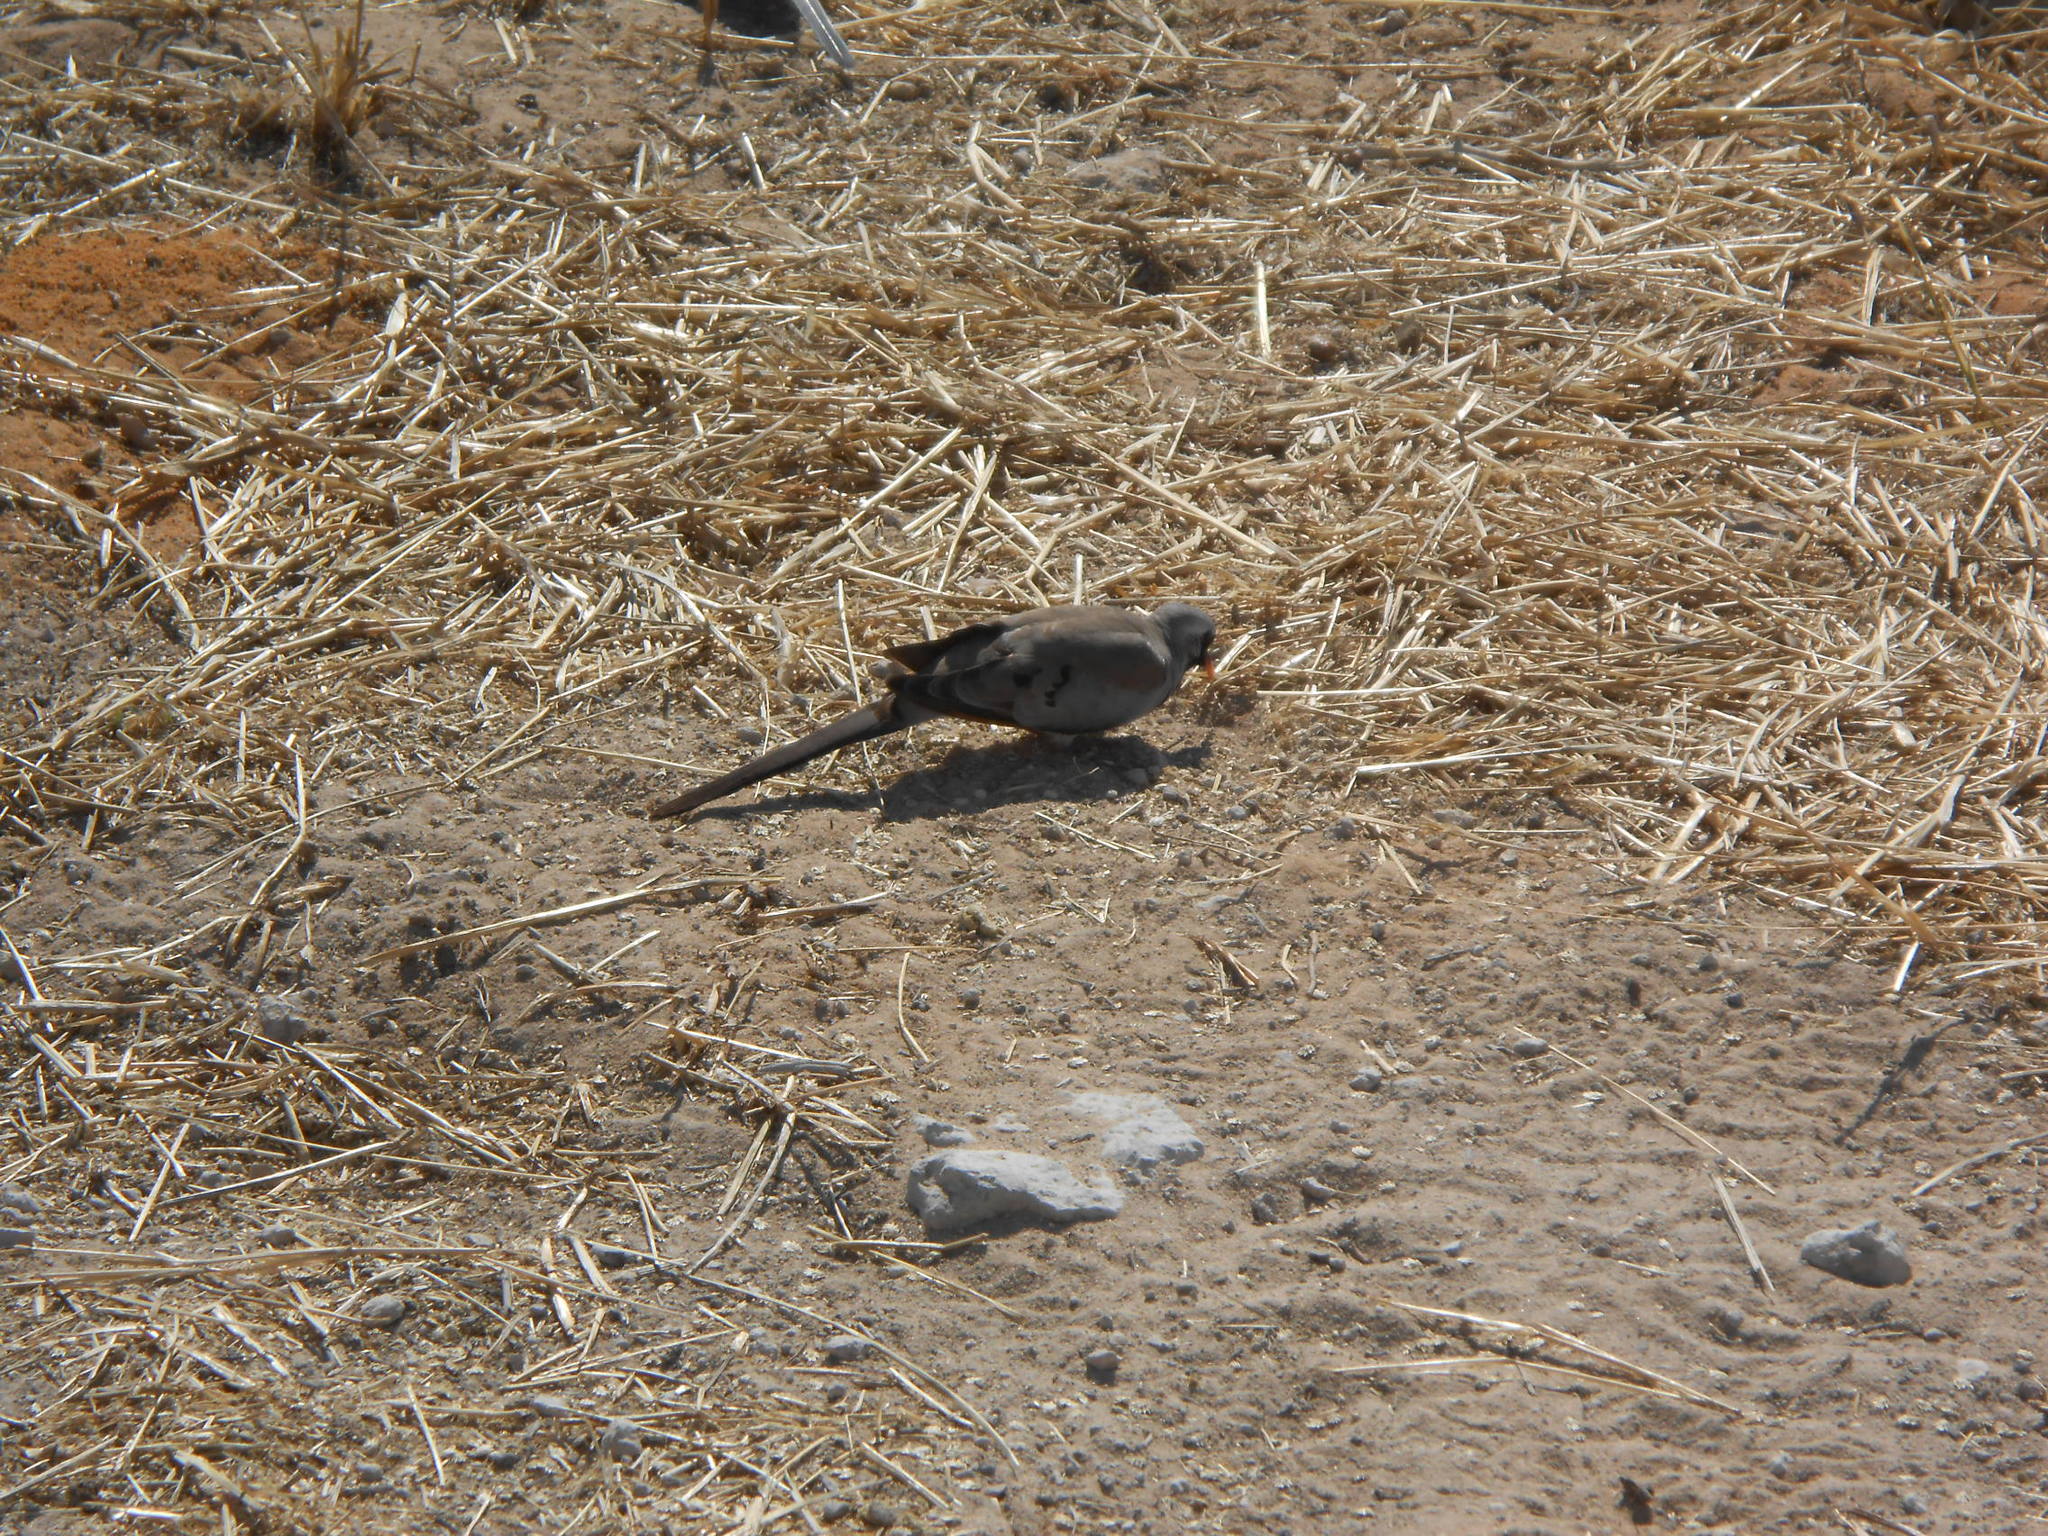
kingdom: Animalia
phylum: Chordata
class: Aves
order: Columbiformes
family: Columbidae
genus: Oena
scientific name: Oena capensis
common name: Namaqua dove
